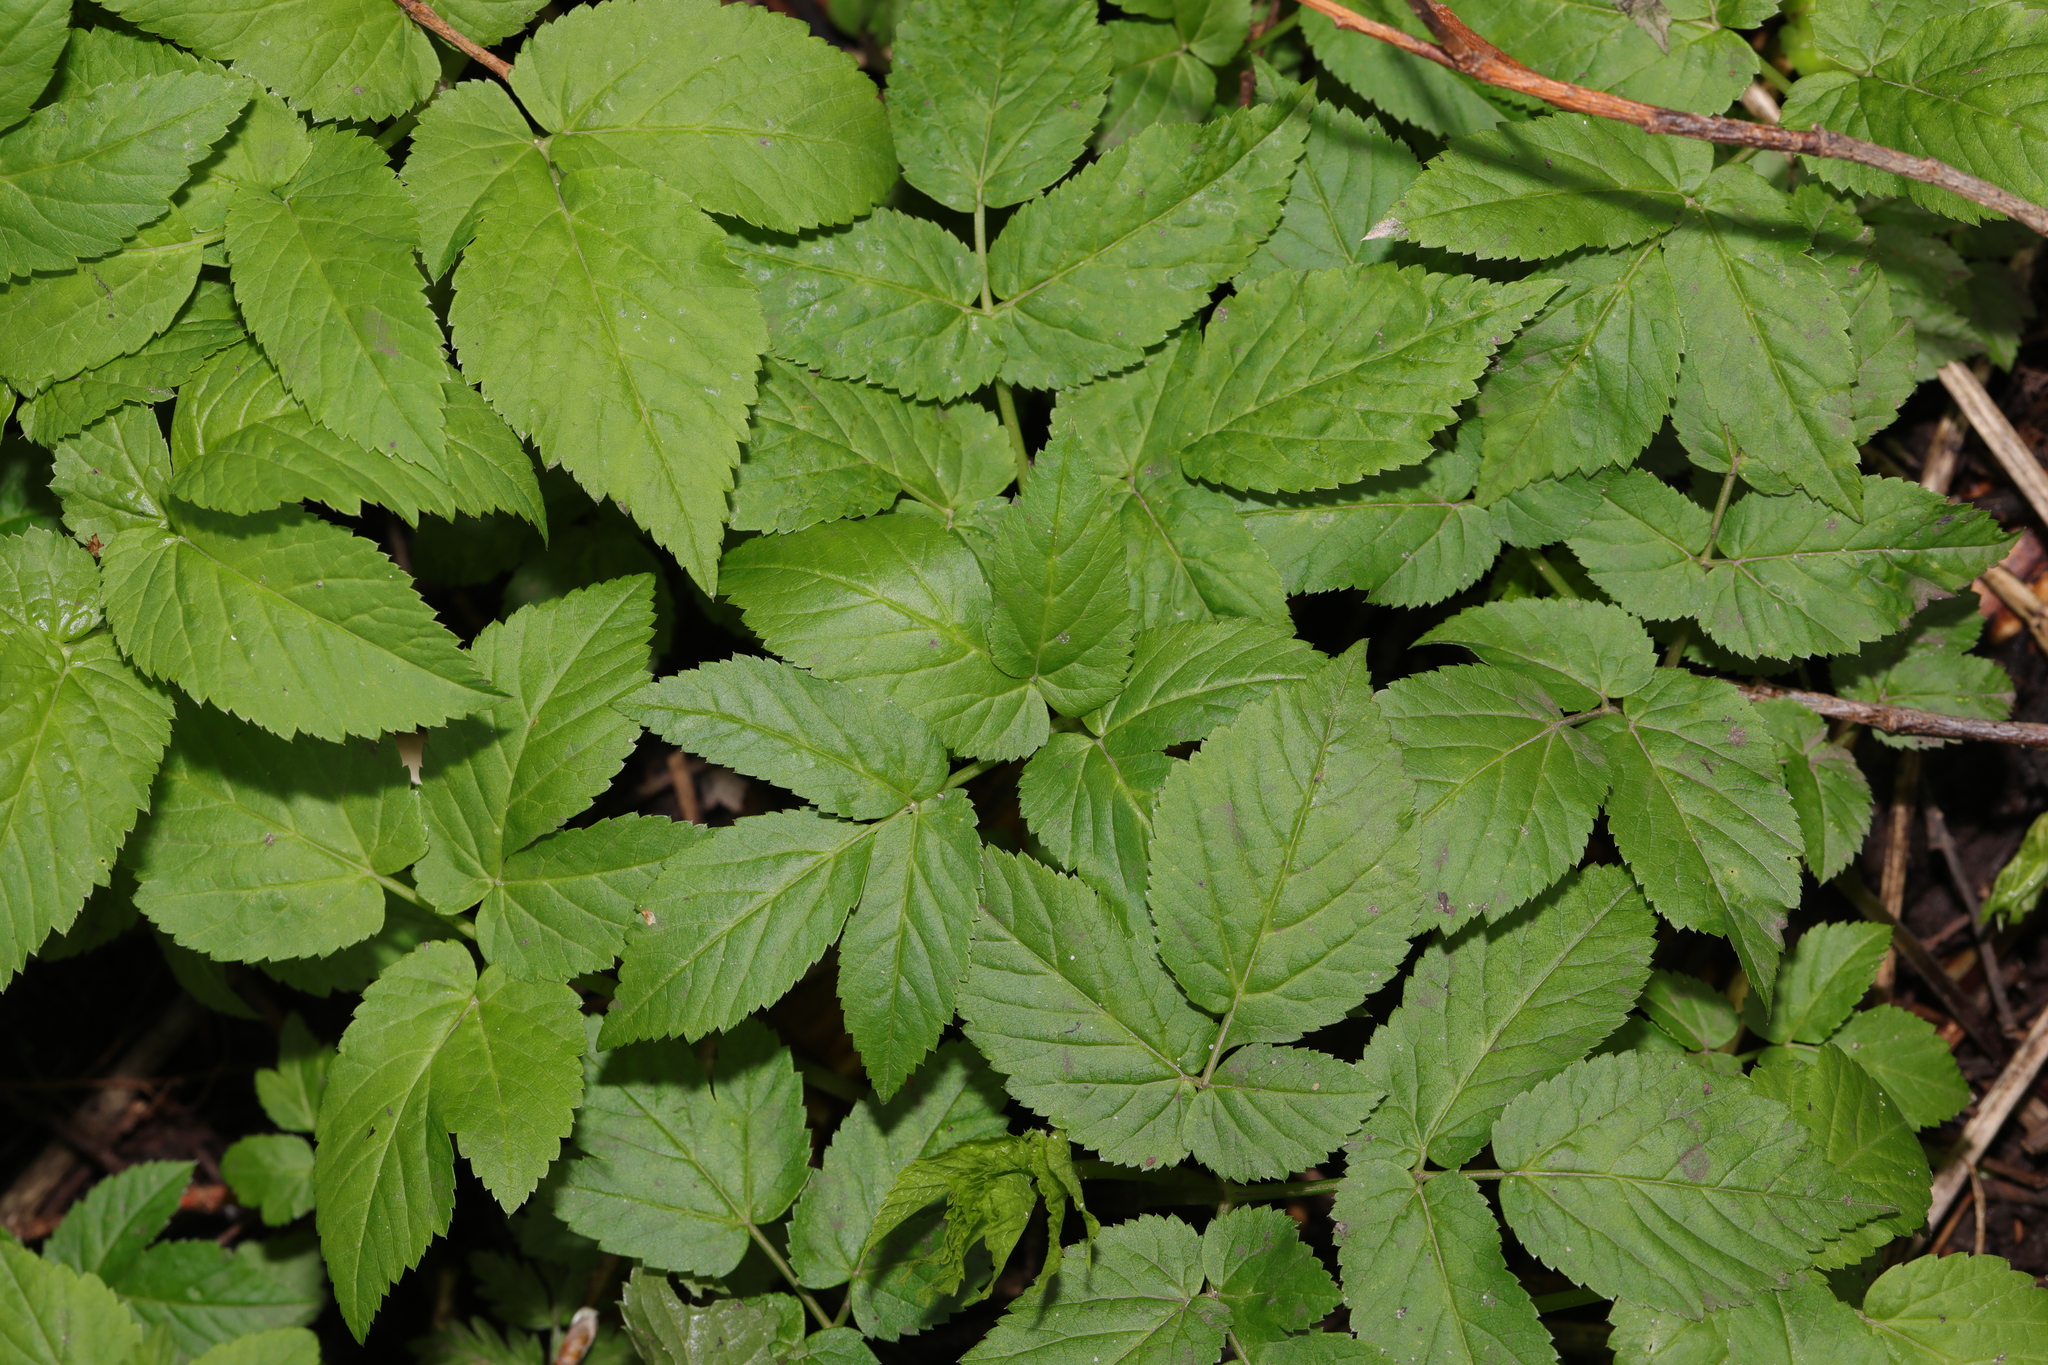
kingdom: Plantae
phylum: Tracheophyta
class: Magnoliopsida
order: Apiales
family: Apiaceae
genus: Aegopodium
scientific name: Aegopodium podagraria
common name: Ground-elder
